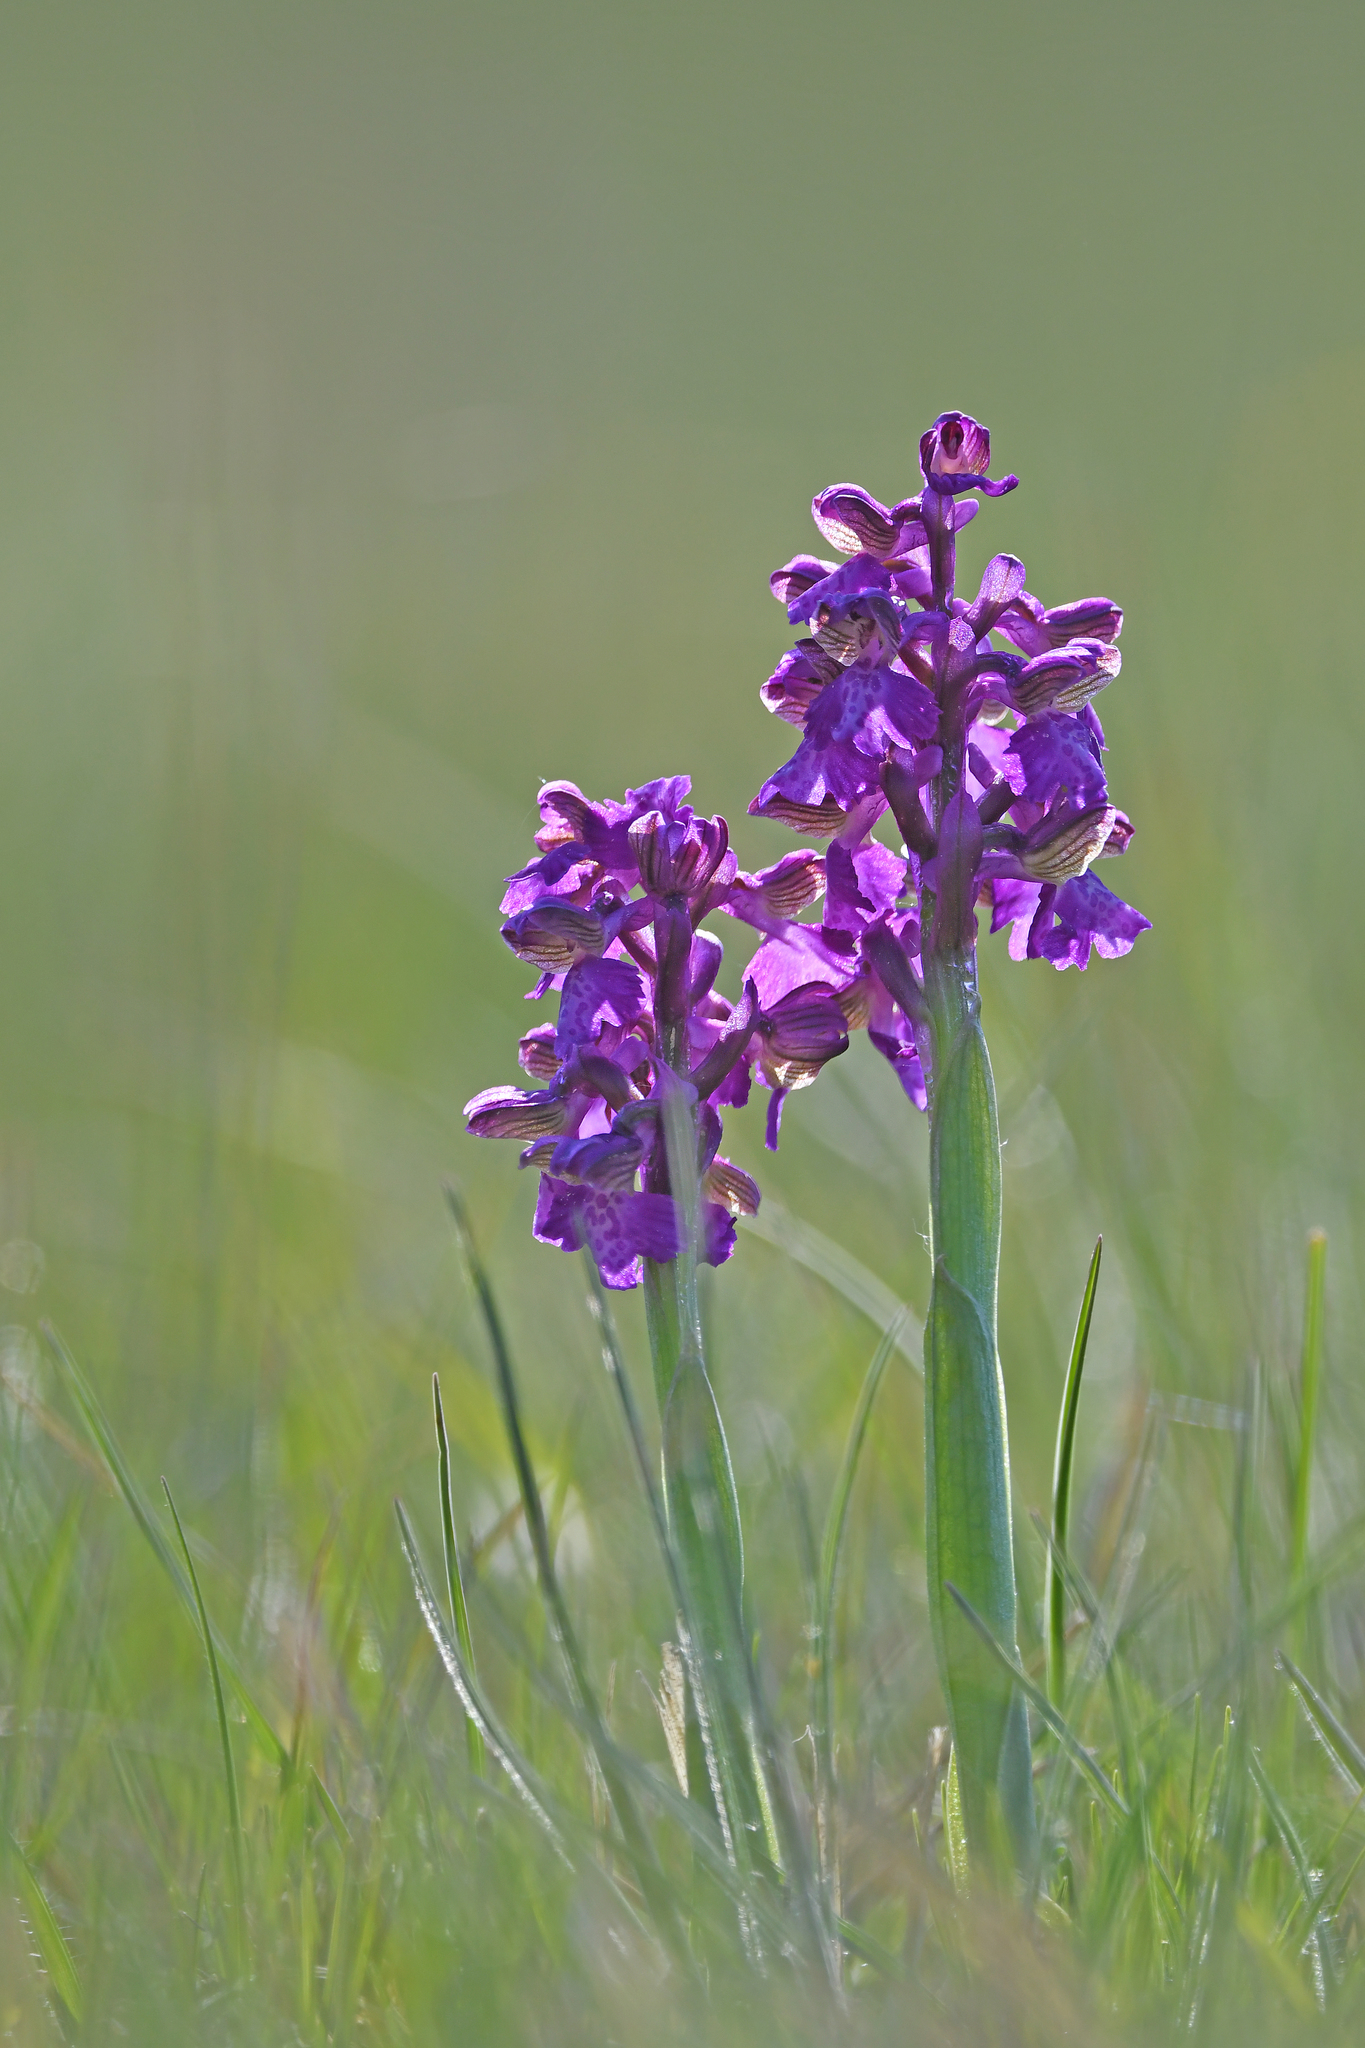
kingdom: Plantae
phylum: Tracheophyta
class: Liliopsida
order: Asparagales
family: Orchidaceae
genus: Anacamptis
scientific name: Anacamptis morio
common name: Green-winged orchid
